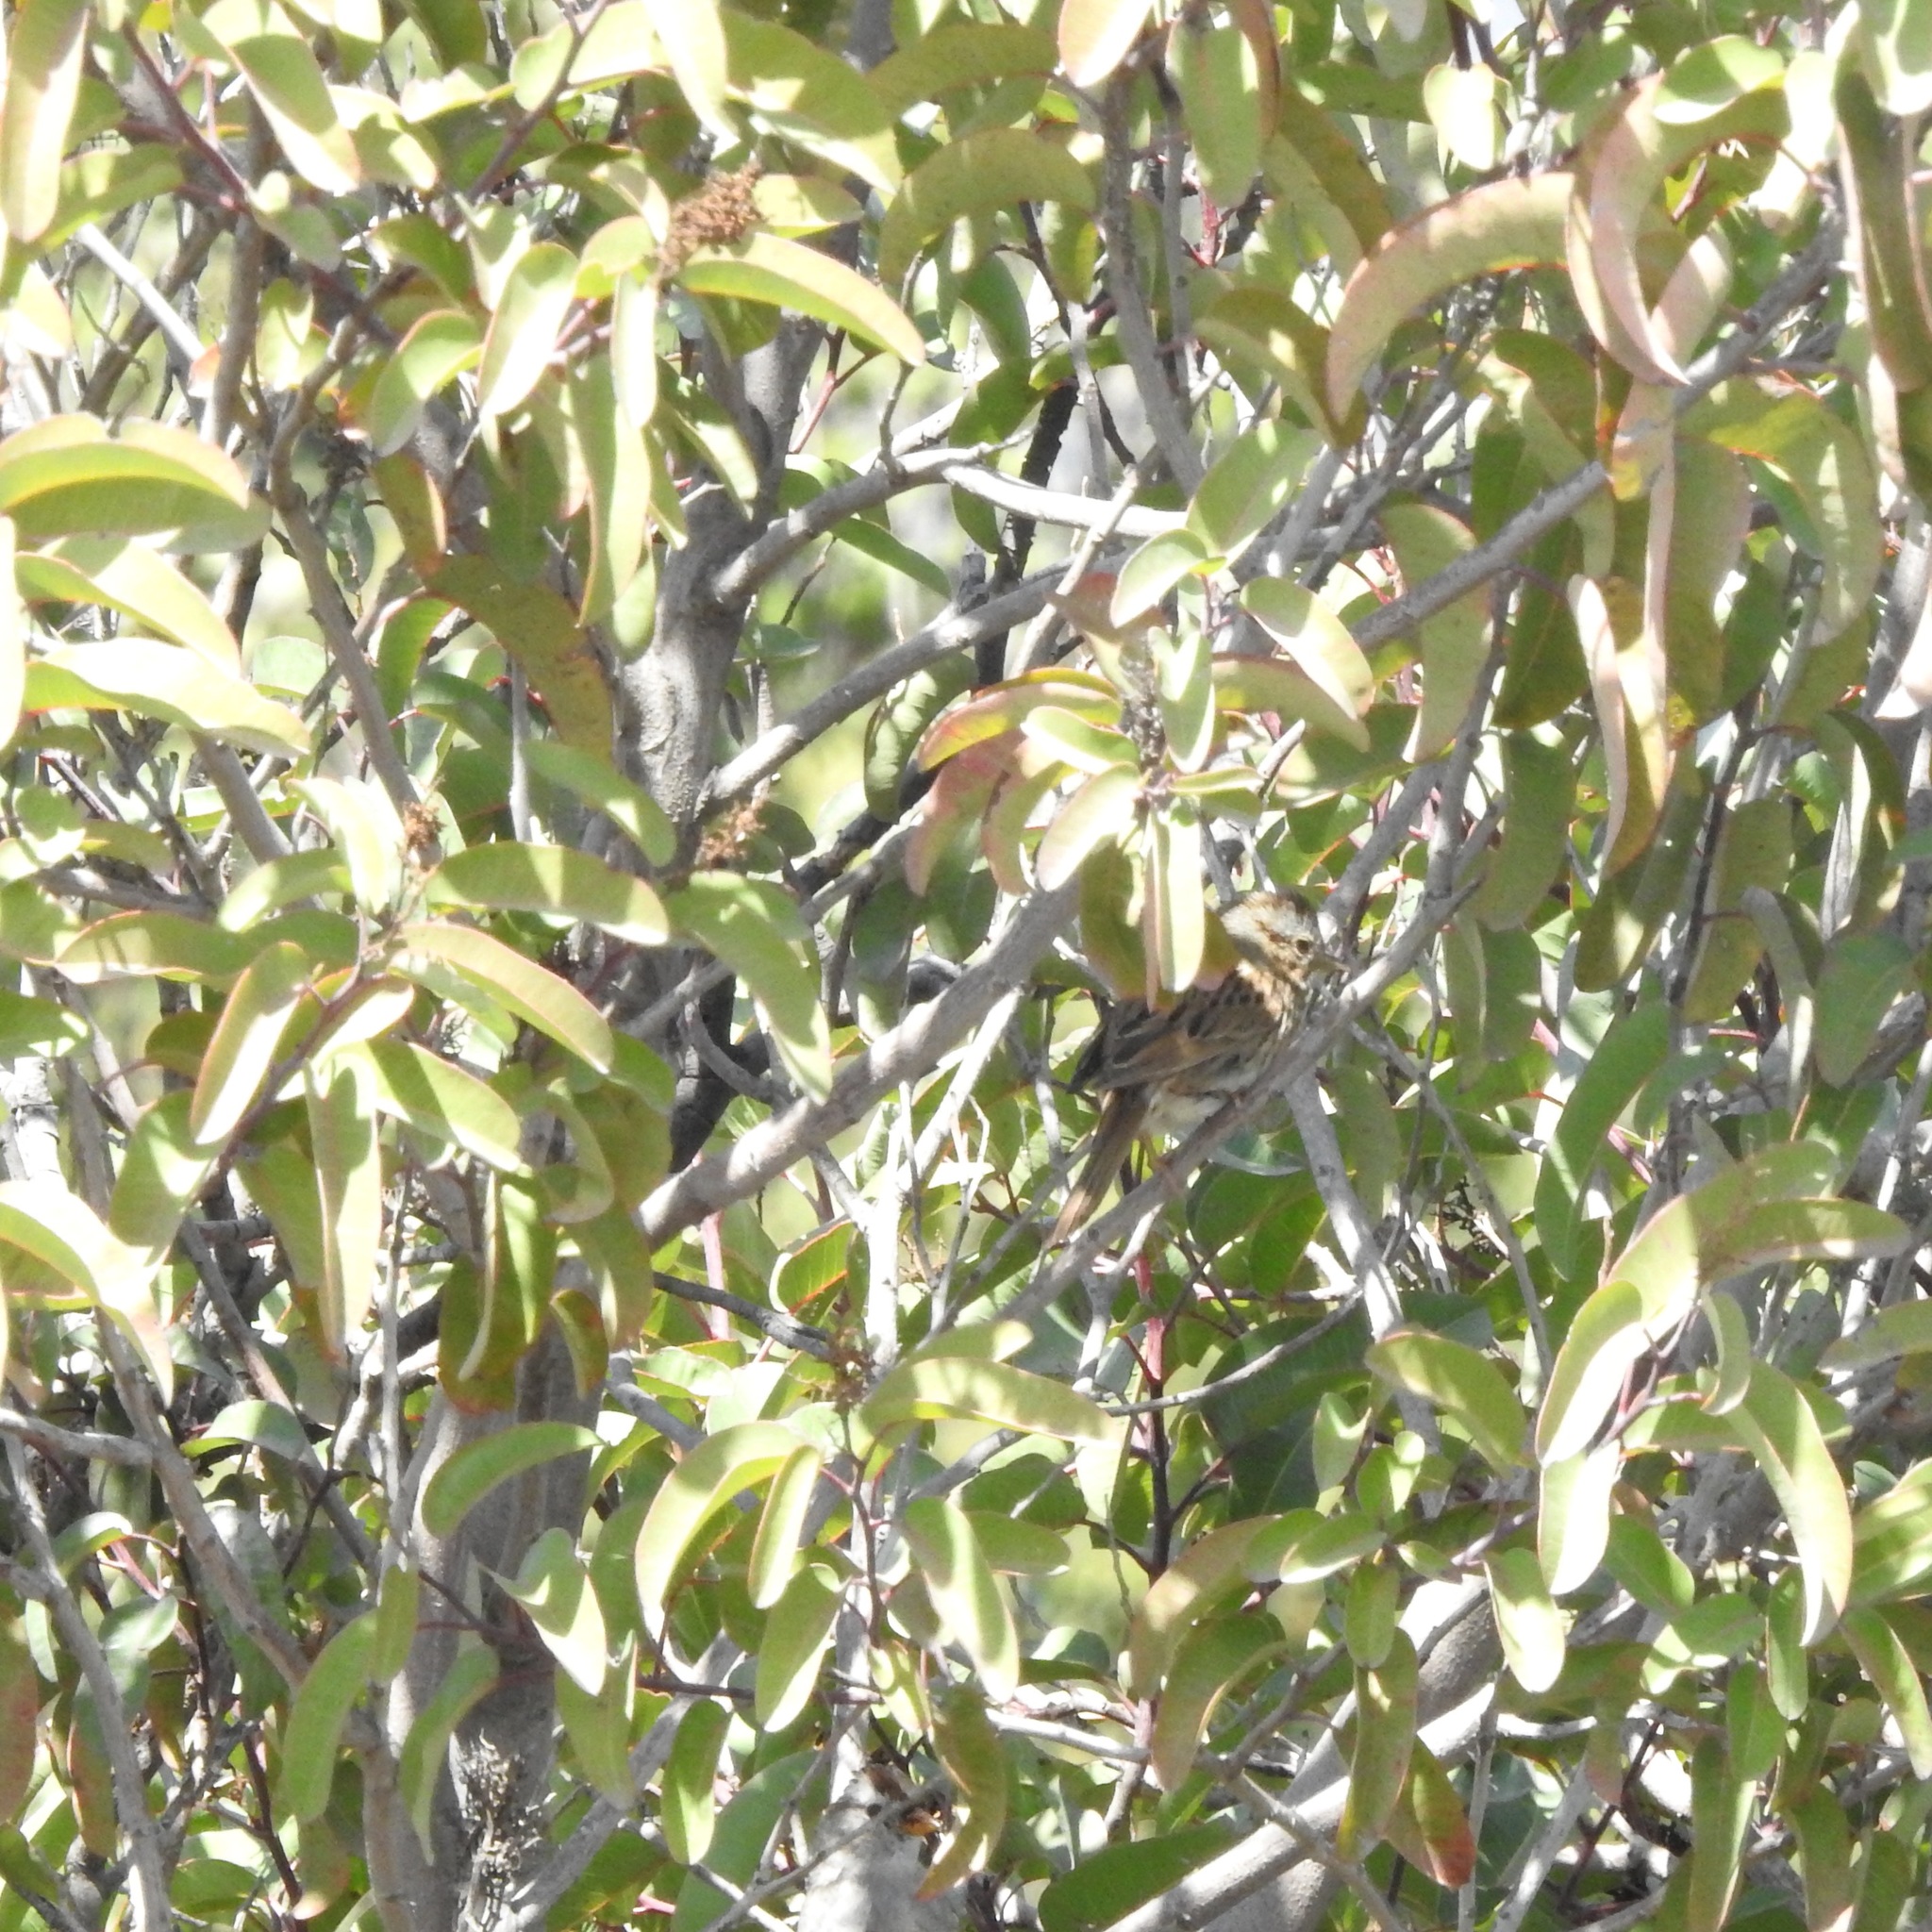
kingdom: Animalia
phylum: Chordata
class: Aves
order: Passeriformes
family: Passerellidae
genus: Melospiza
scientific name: Melospiza lincolnii
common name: Lincoln's sparrow
